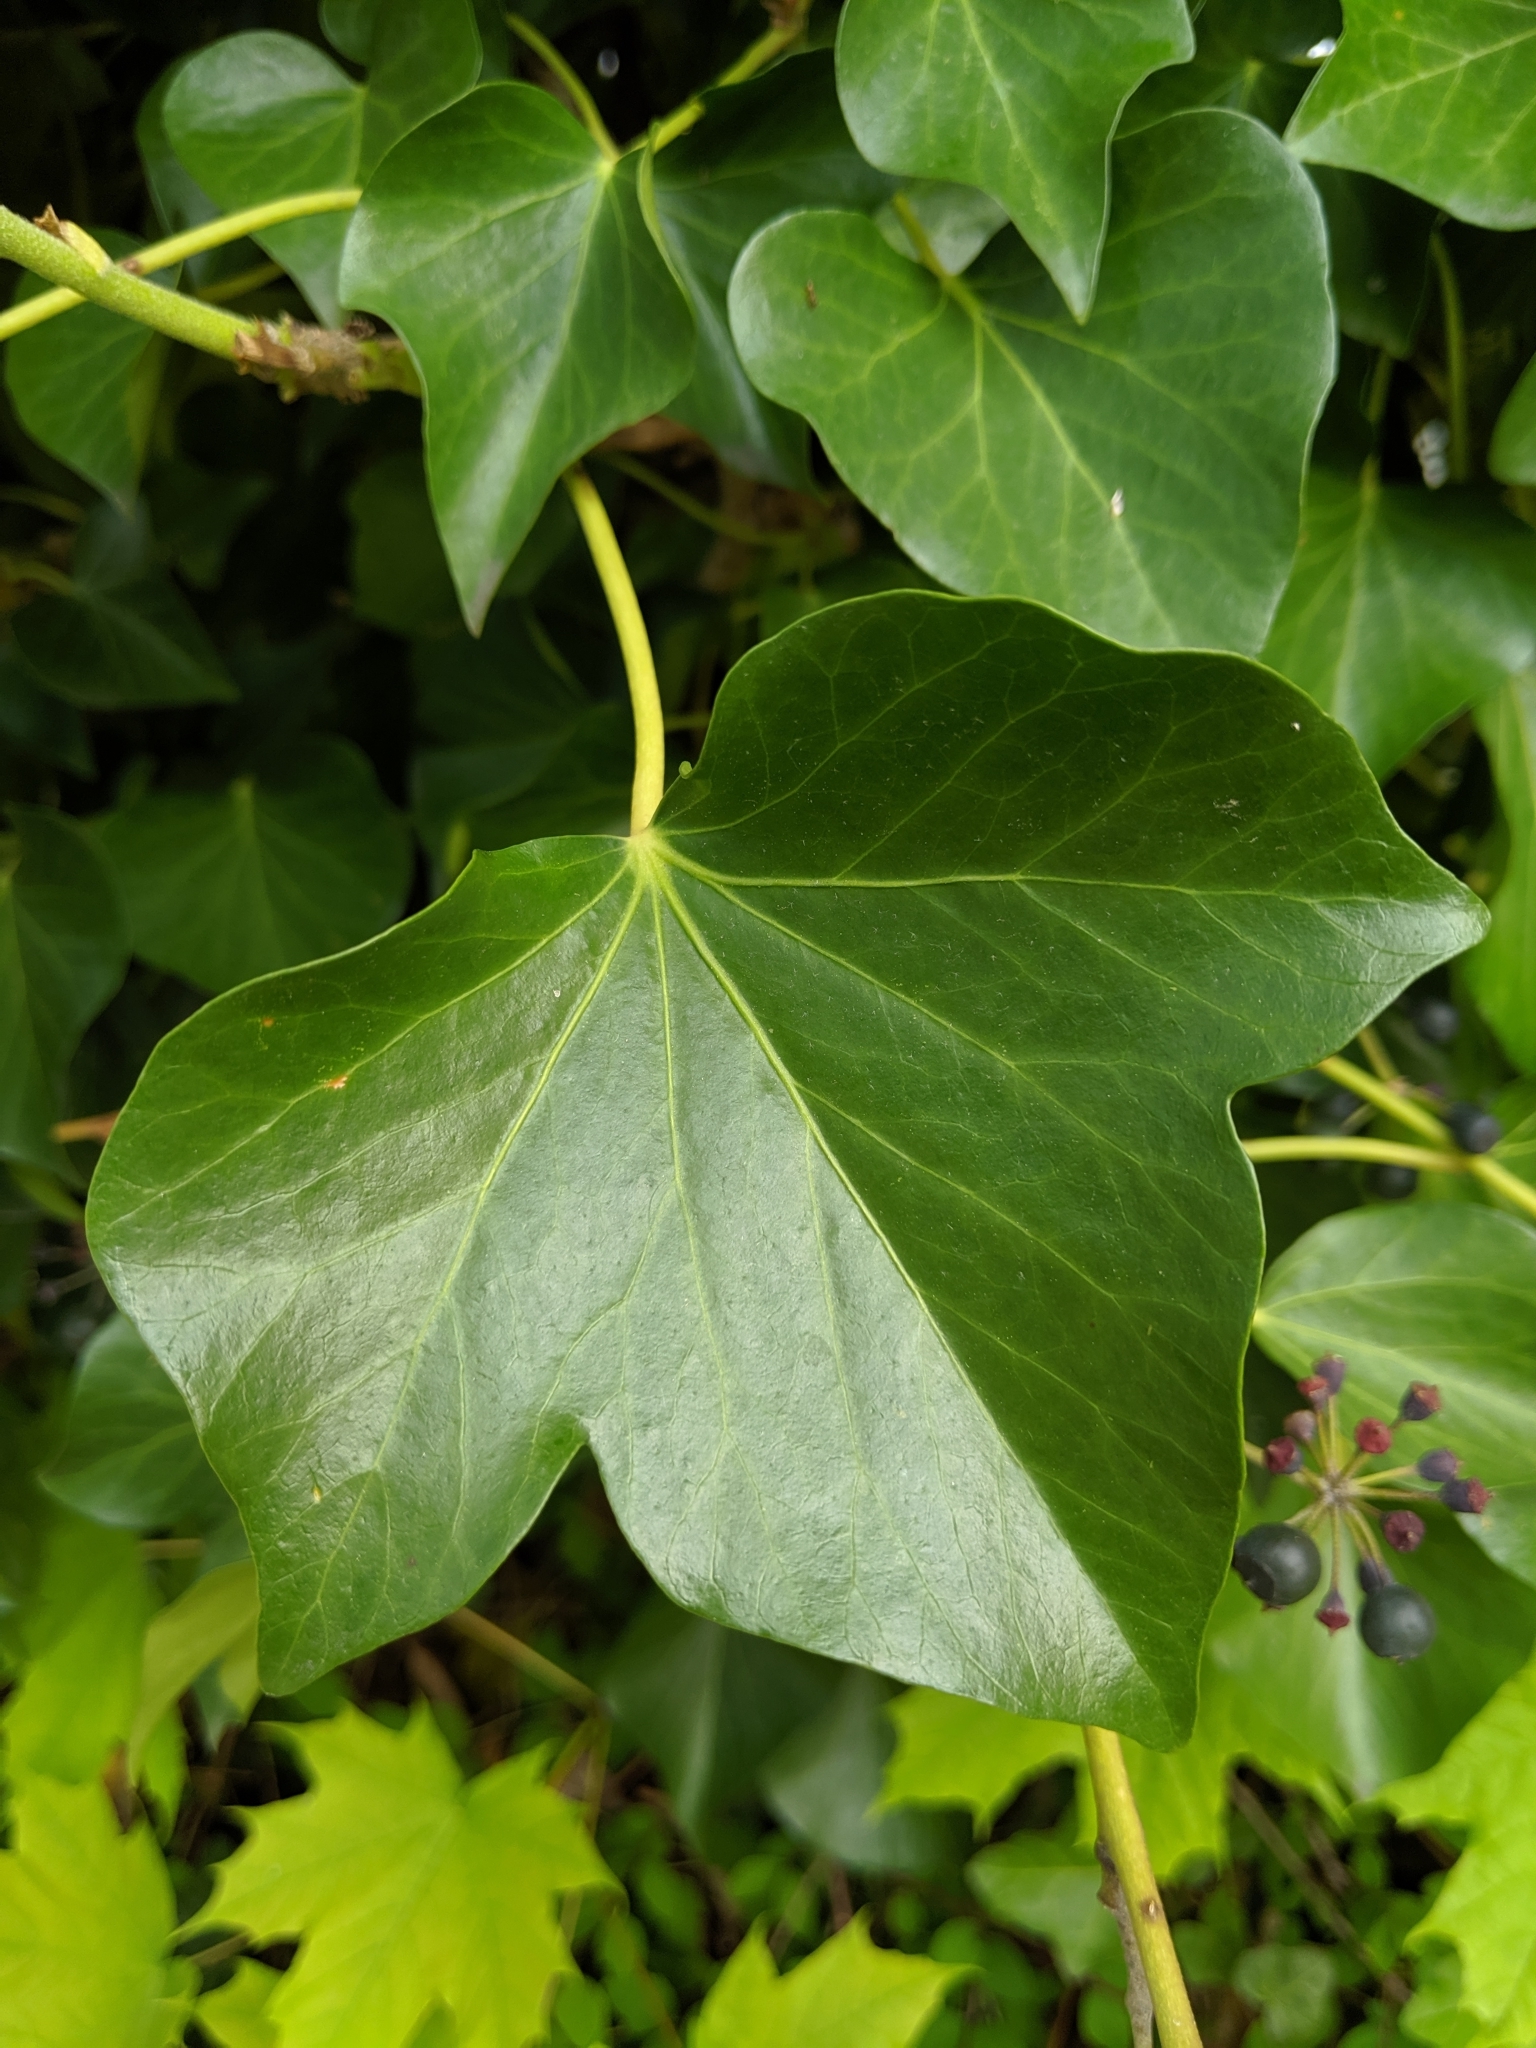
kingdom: Plantae
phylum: Tracheophyta
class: Magnoliopsida
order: Apiales
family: Araliaceae
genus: Hedera
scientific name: Hedera helix
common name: Ivy
